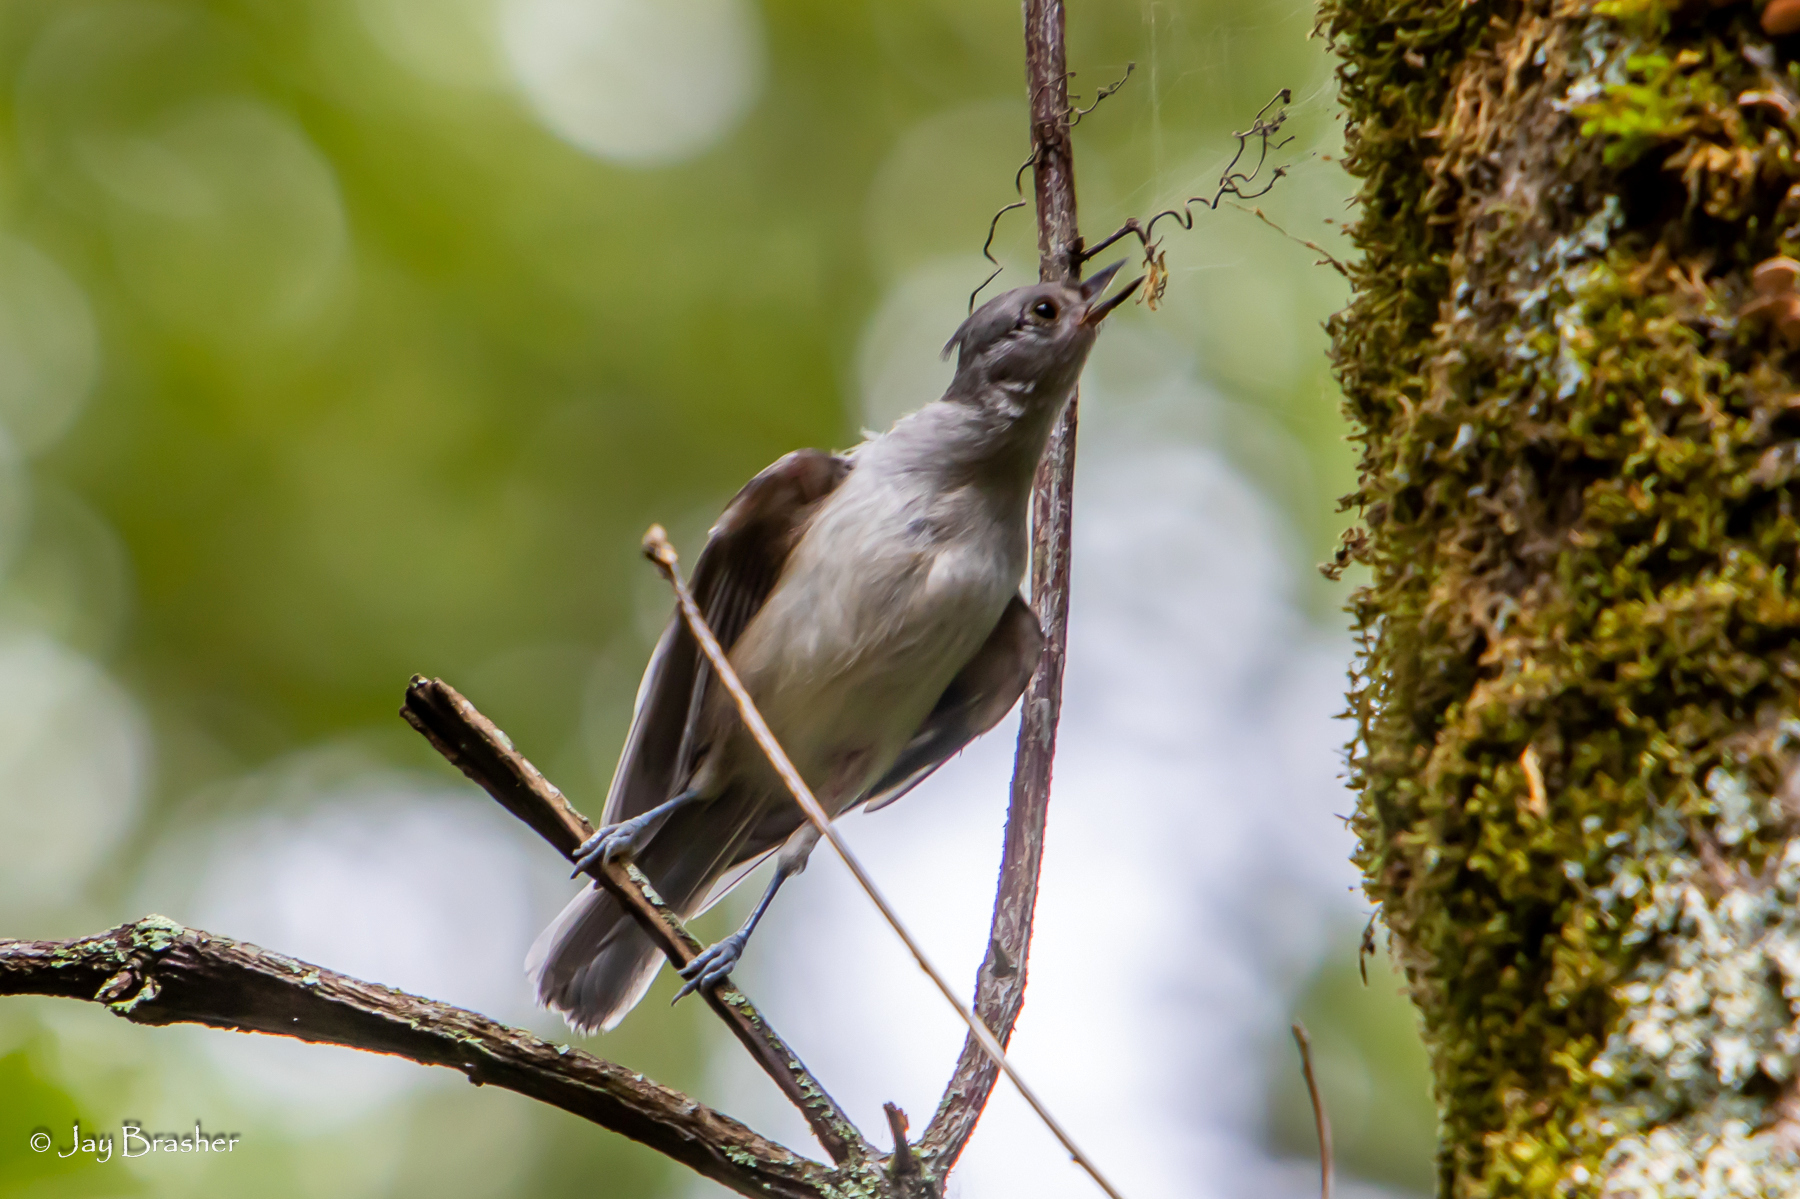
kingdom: Animalia
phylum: Chordata
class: Aves
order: Passeriformes
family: Paridae
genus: Baeolophus
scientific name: Baeolophus bicolor
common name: Tufted titmouse
